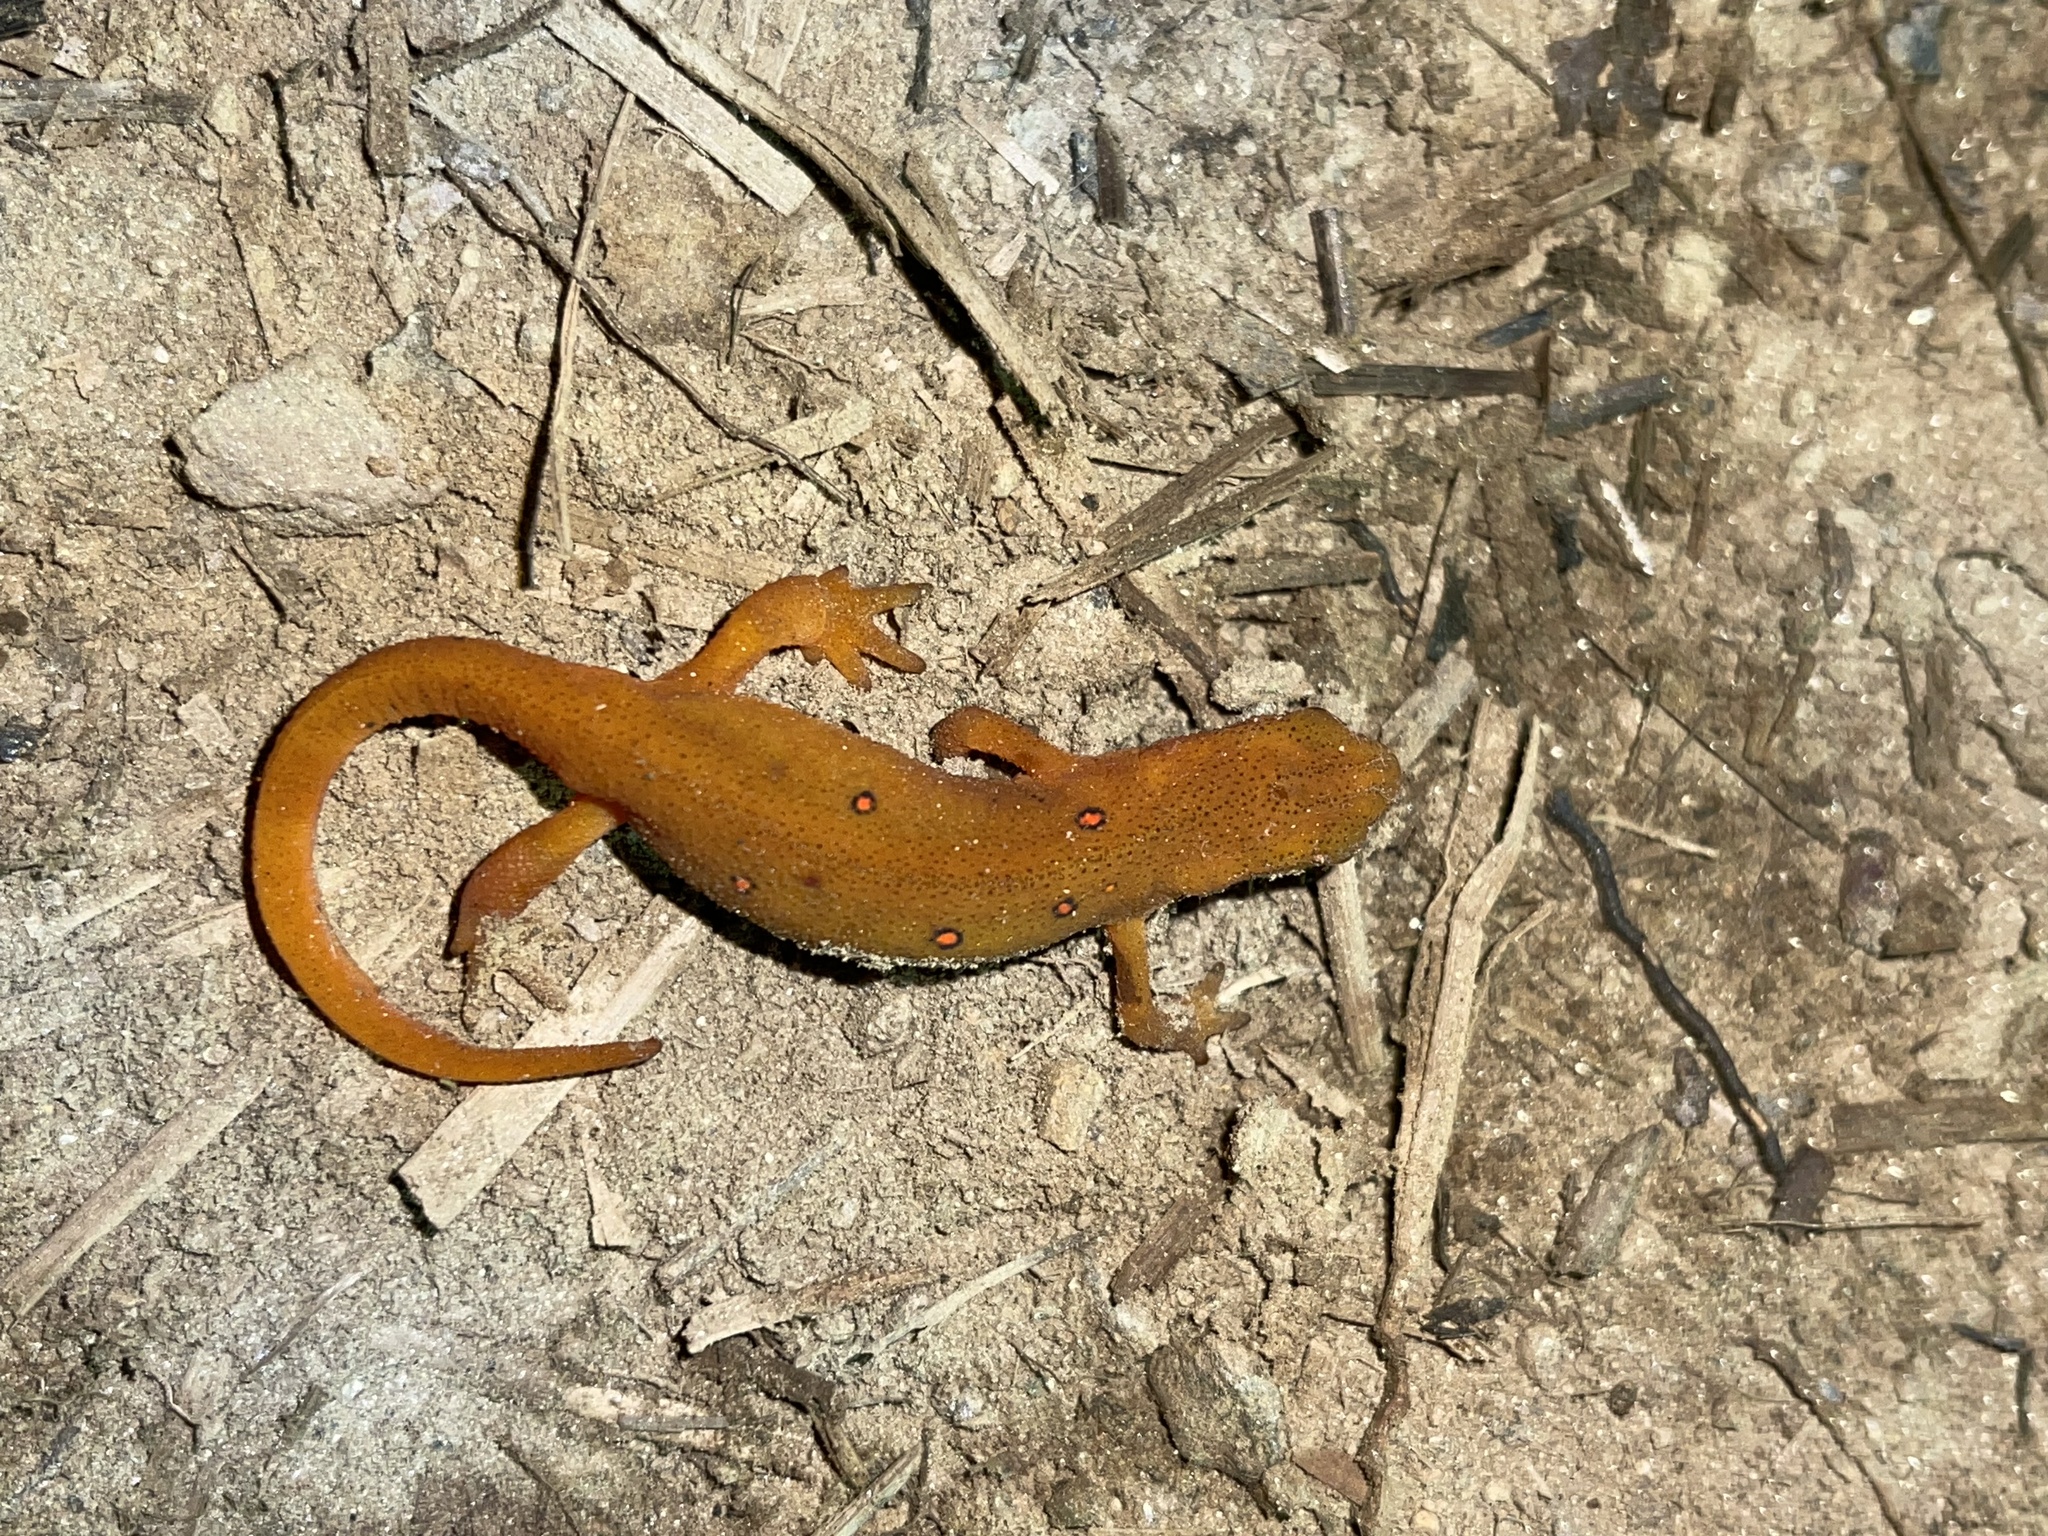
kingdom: Animalia
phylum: Chordata
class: Amphibia
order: Caudata
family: Salamandridae
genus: Notophthalmus
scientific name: Notophthalmus viridescens
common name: Eastern newt
